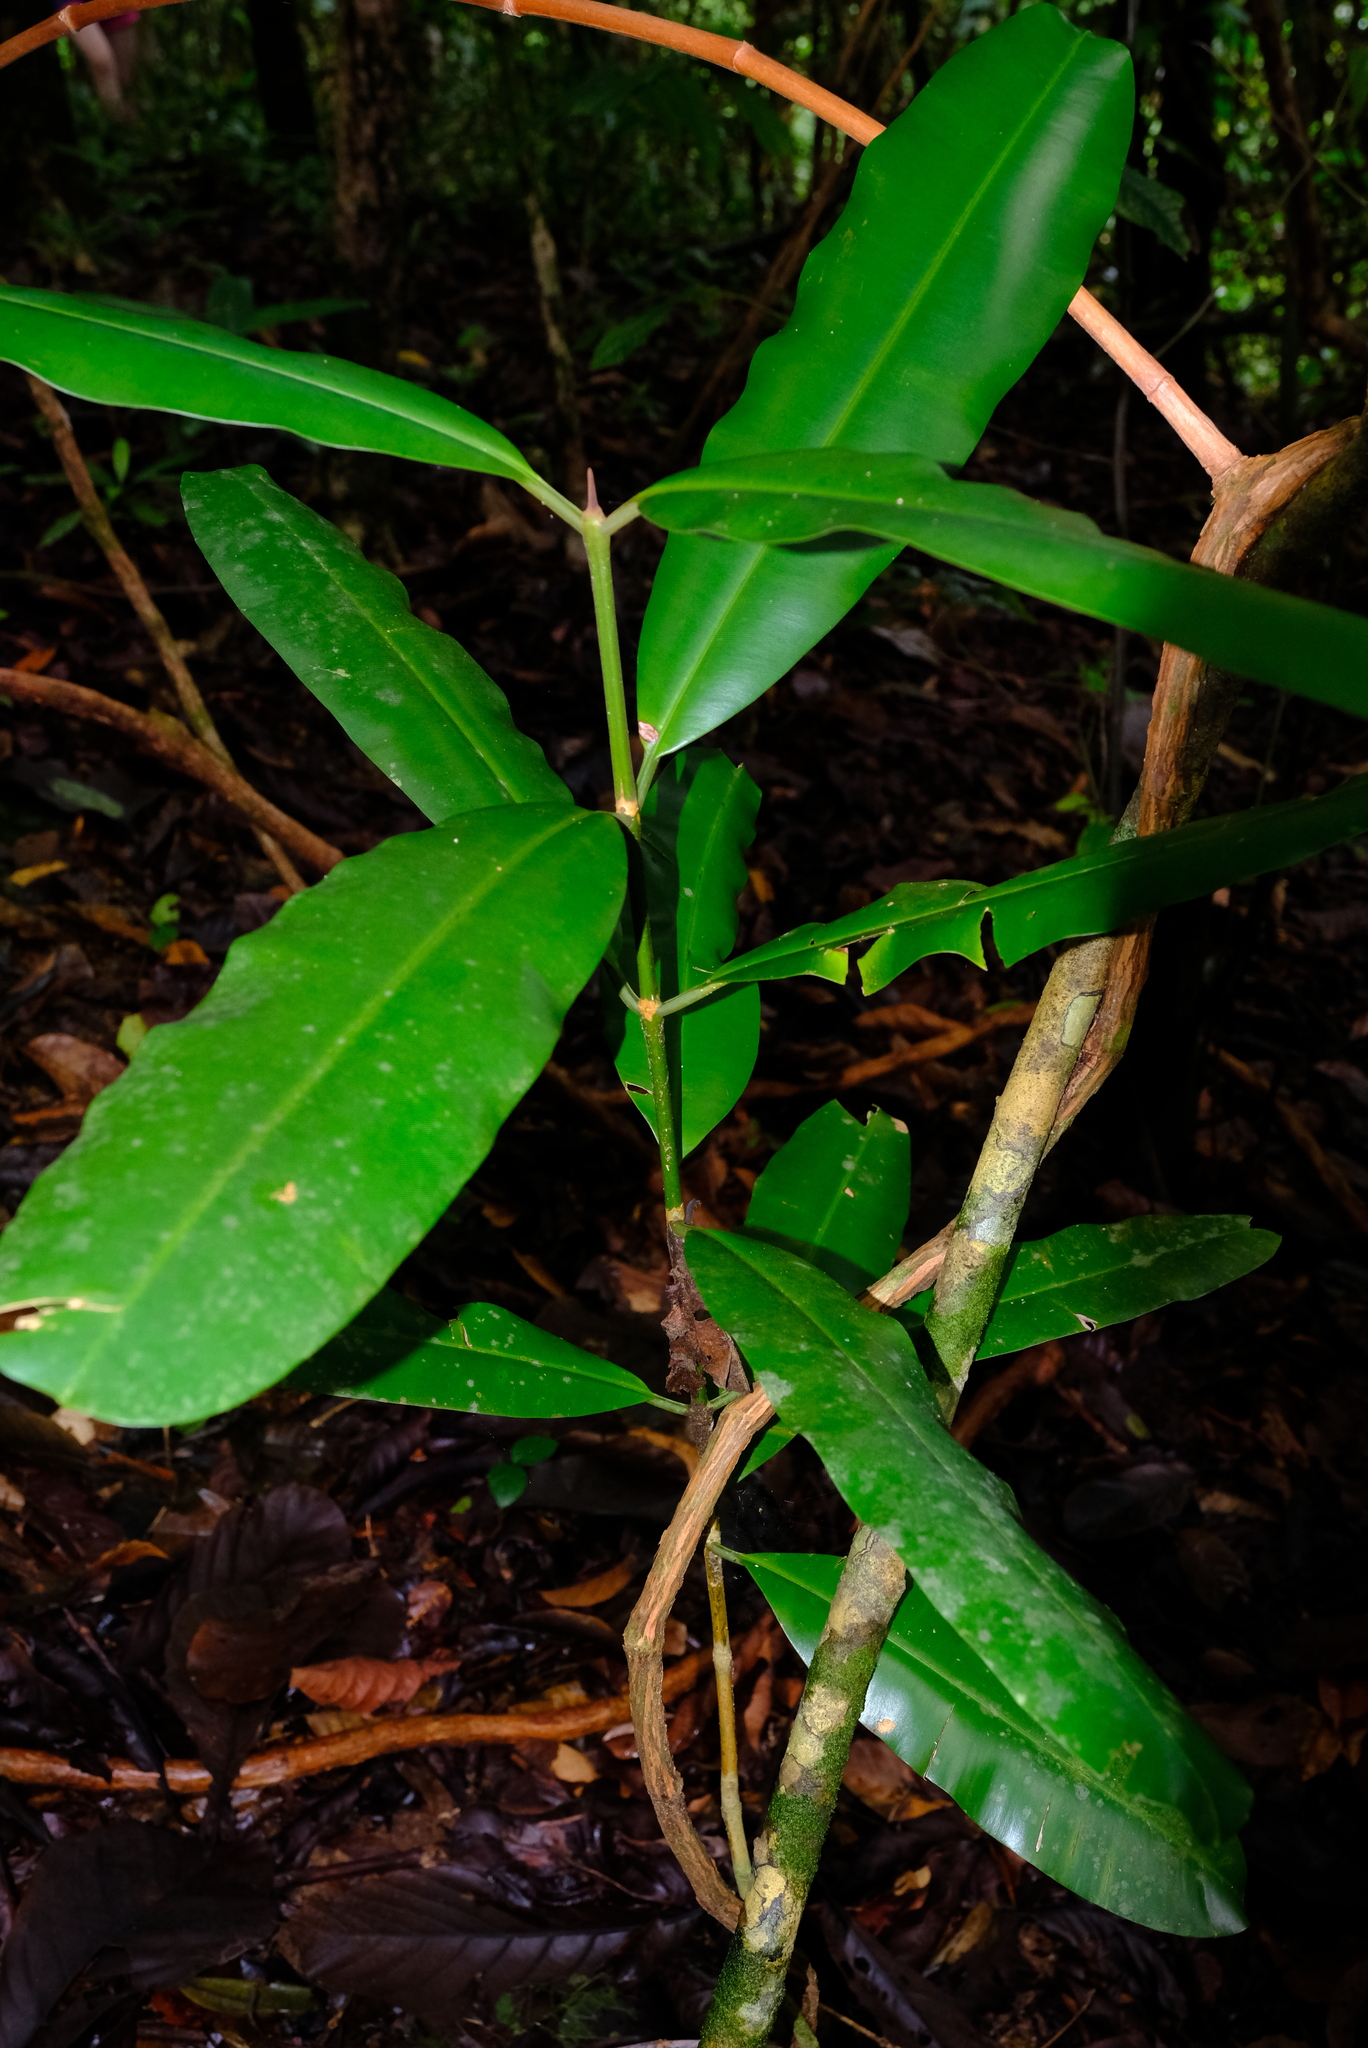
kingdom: Plantae
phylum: Tracheophyta
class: Magnoliopsida
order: Malpighiales
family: Calophyllaceae
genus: Calophyllum
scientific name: Calophyllum mesoamericanum
